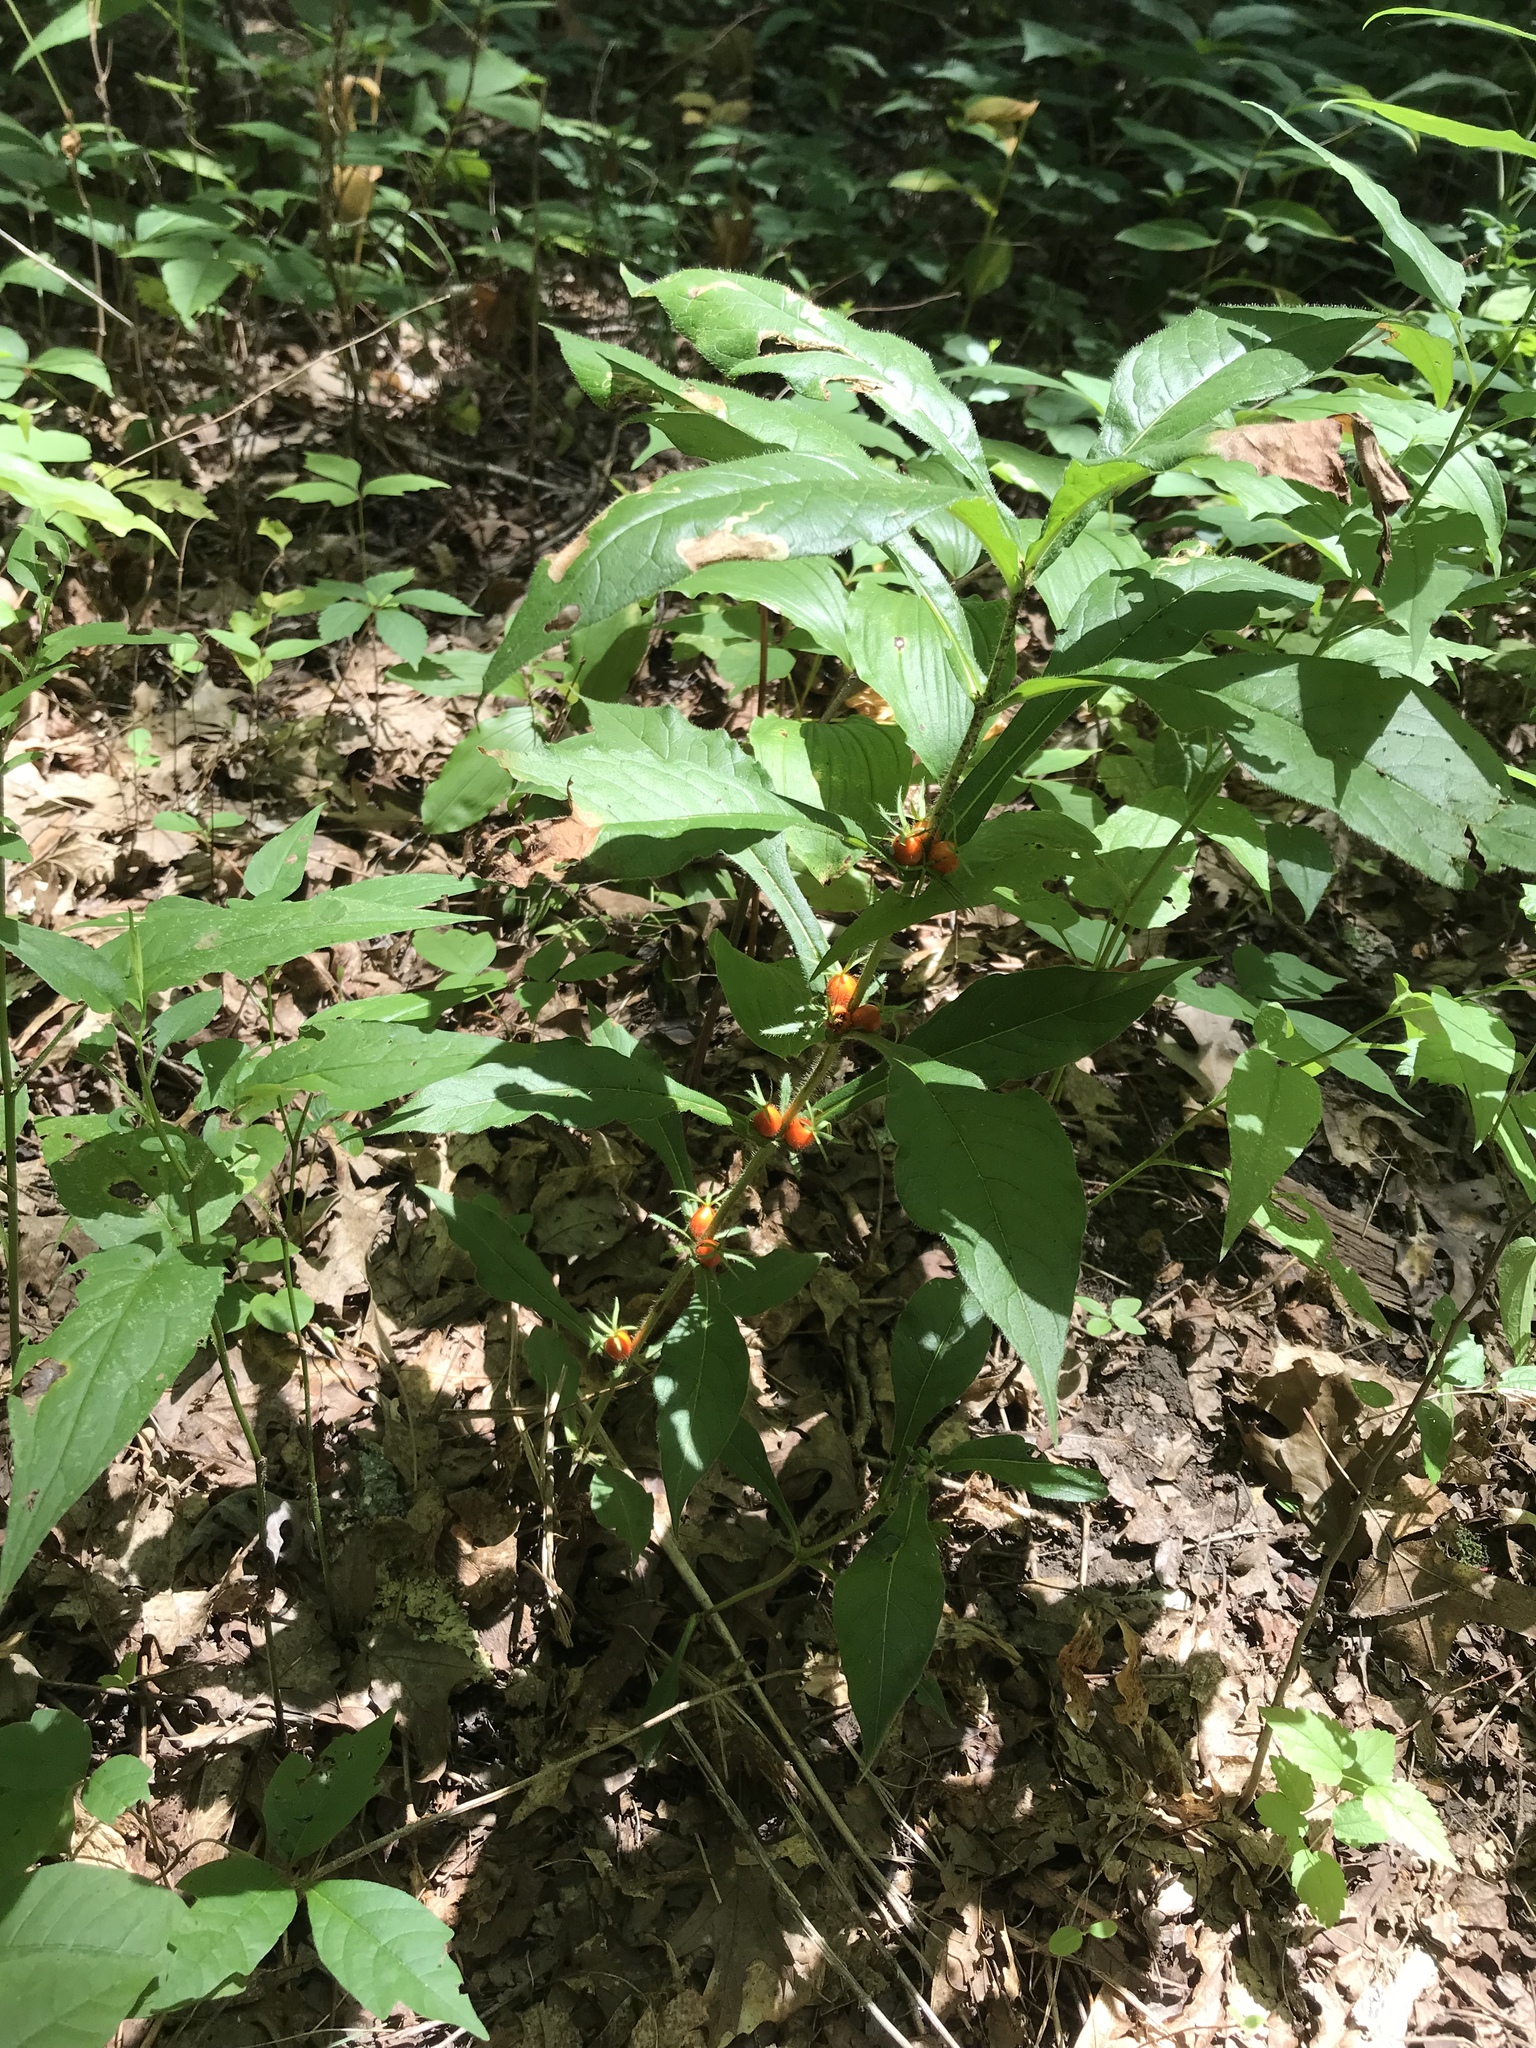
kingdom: Plantae
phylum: Tracheophyta
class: Magnoliopsida
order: Dipsacales
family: Caprifoliaceae
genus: Triosteum
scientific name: Triosteum aurantiacum
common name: Coffee tinker's-weed
